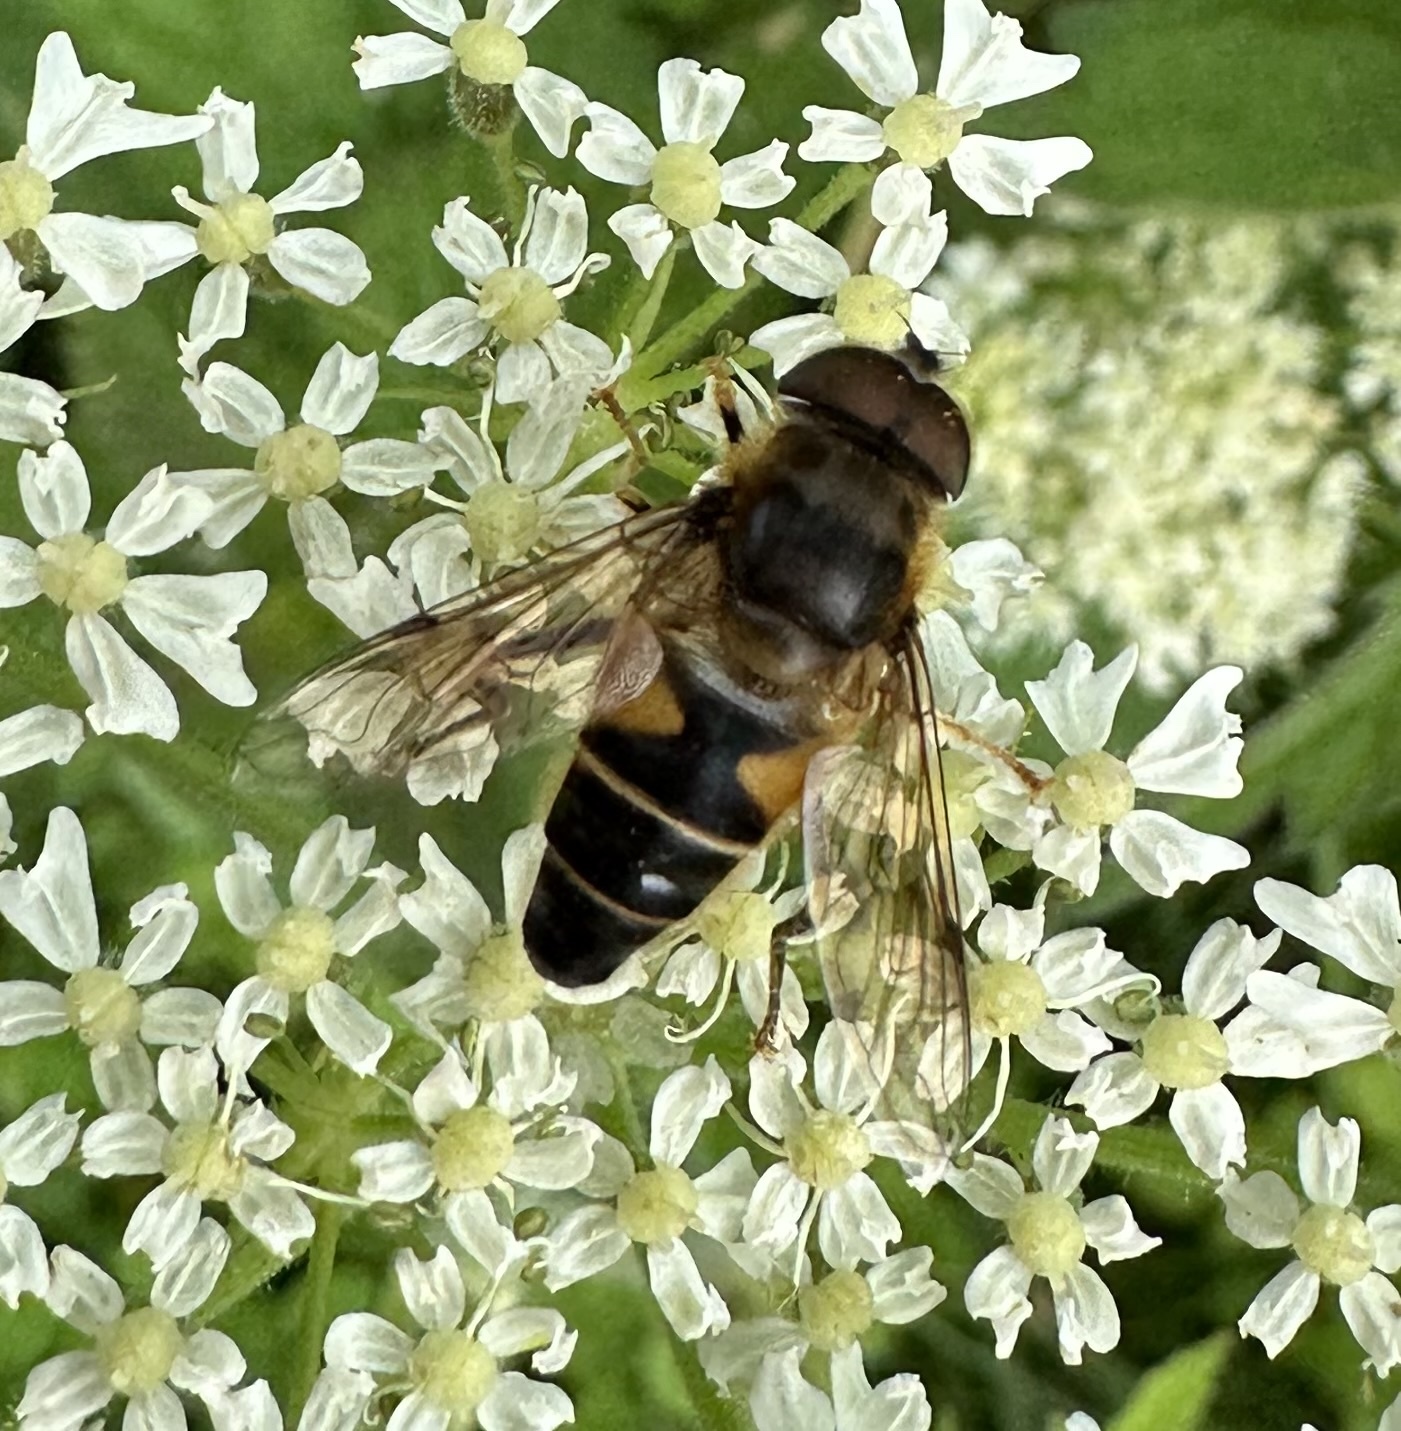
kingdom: Animalia
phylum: Arthropoda
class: Insecta
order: Diptera
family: Syrphidae
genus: Eristalis
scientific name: Eristalis pertinax
